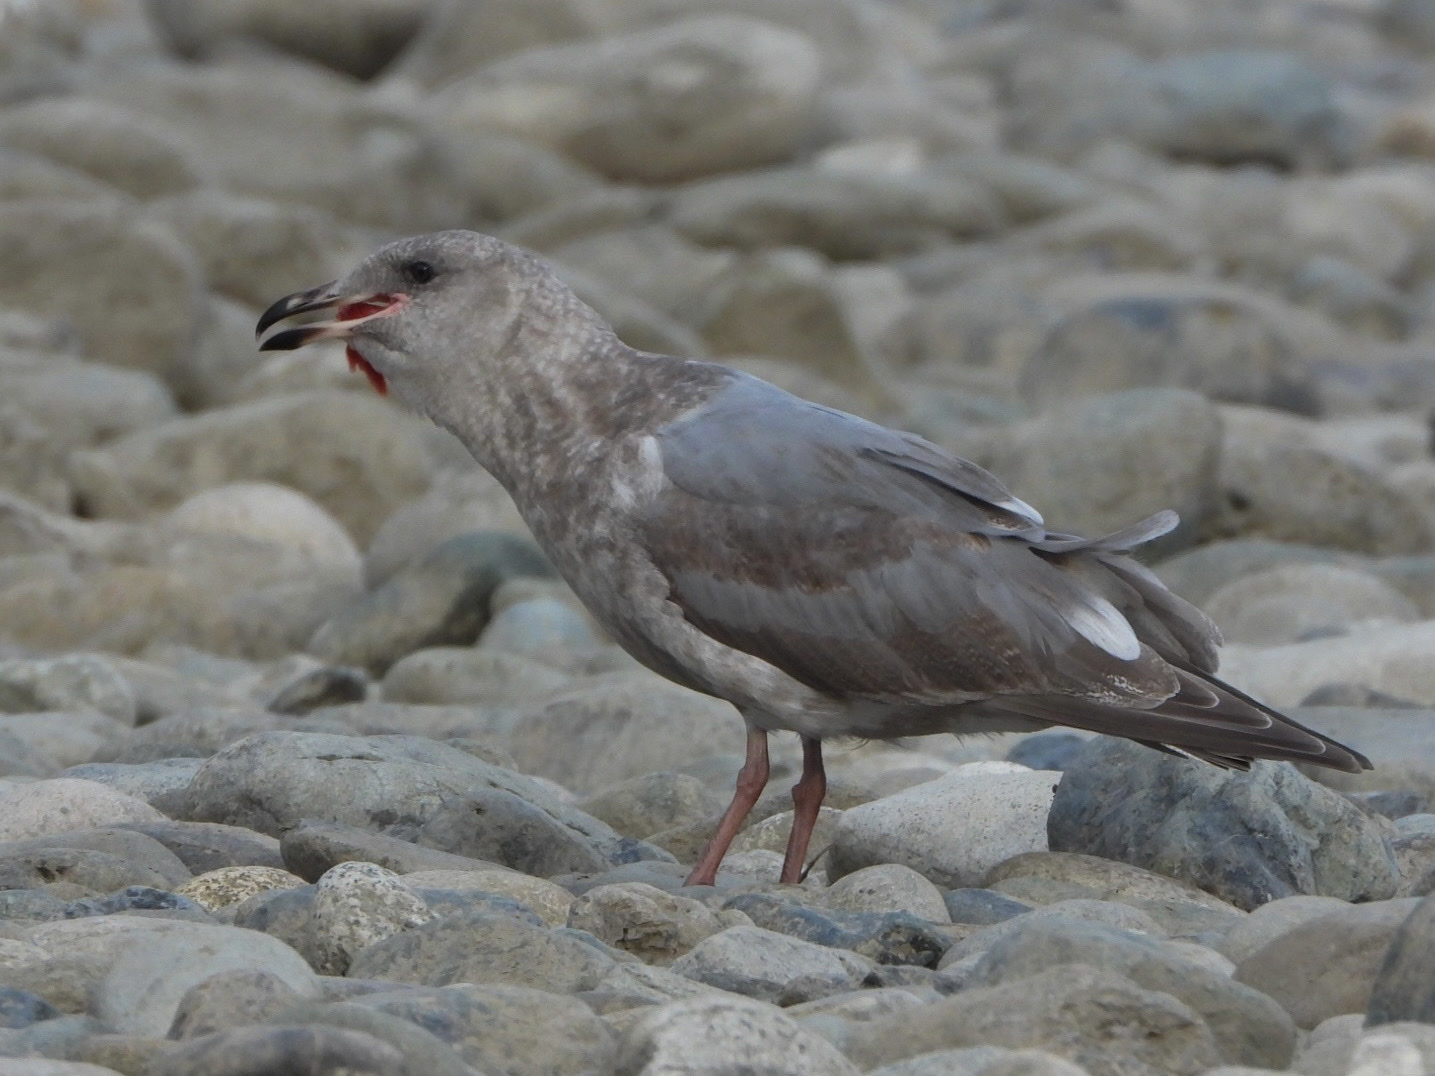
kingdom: Animalia
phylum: Chordata
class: Aves
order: Charadriiformes
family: Laridae
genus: Larus
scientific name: Larus glaucescens
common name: Glaucous-winged gull
